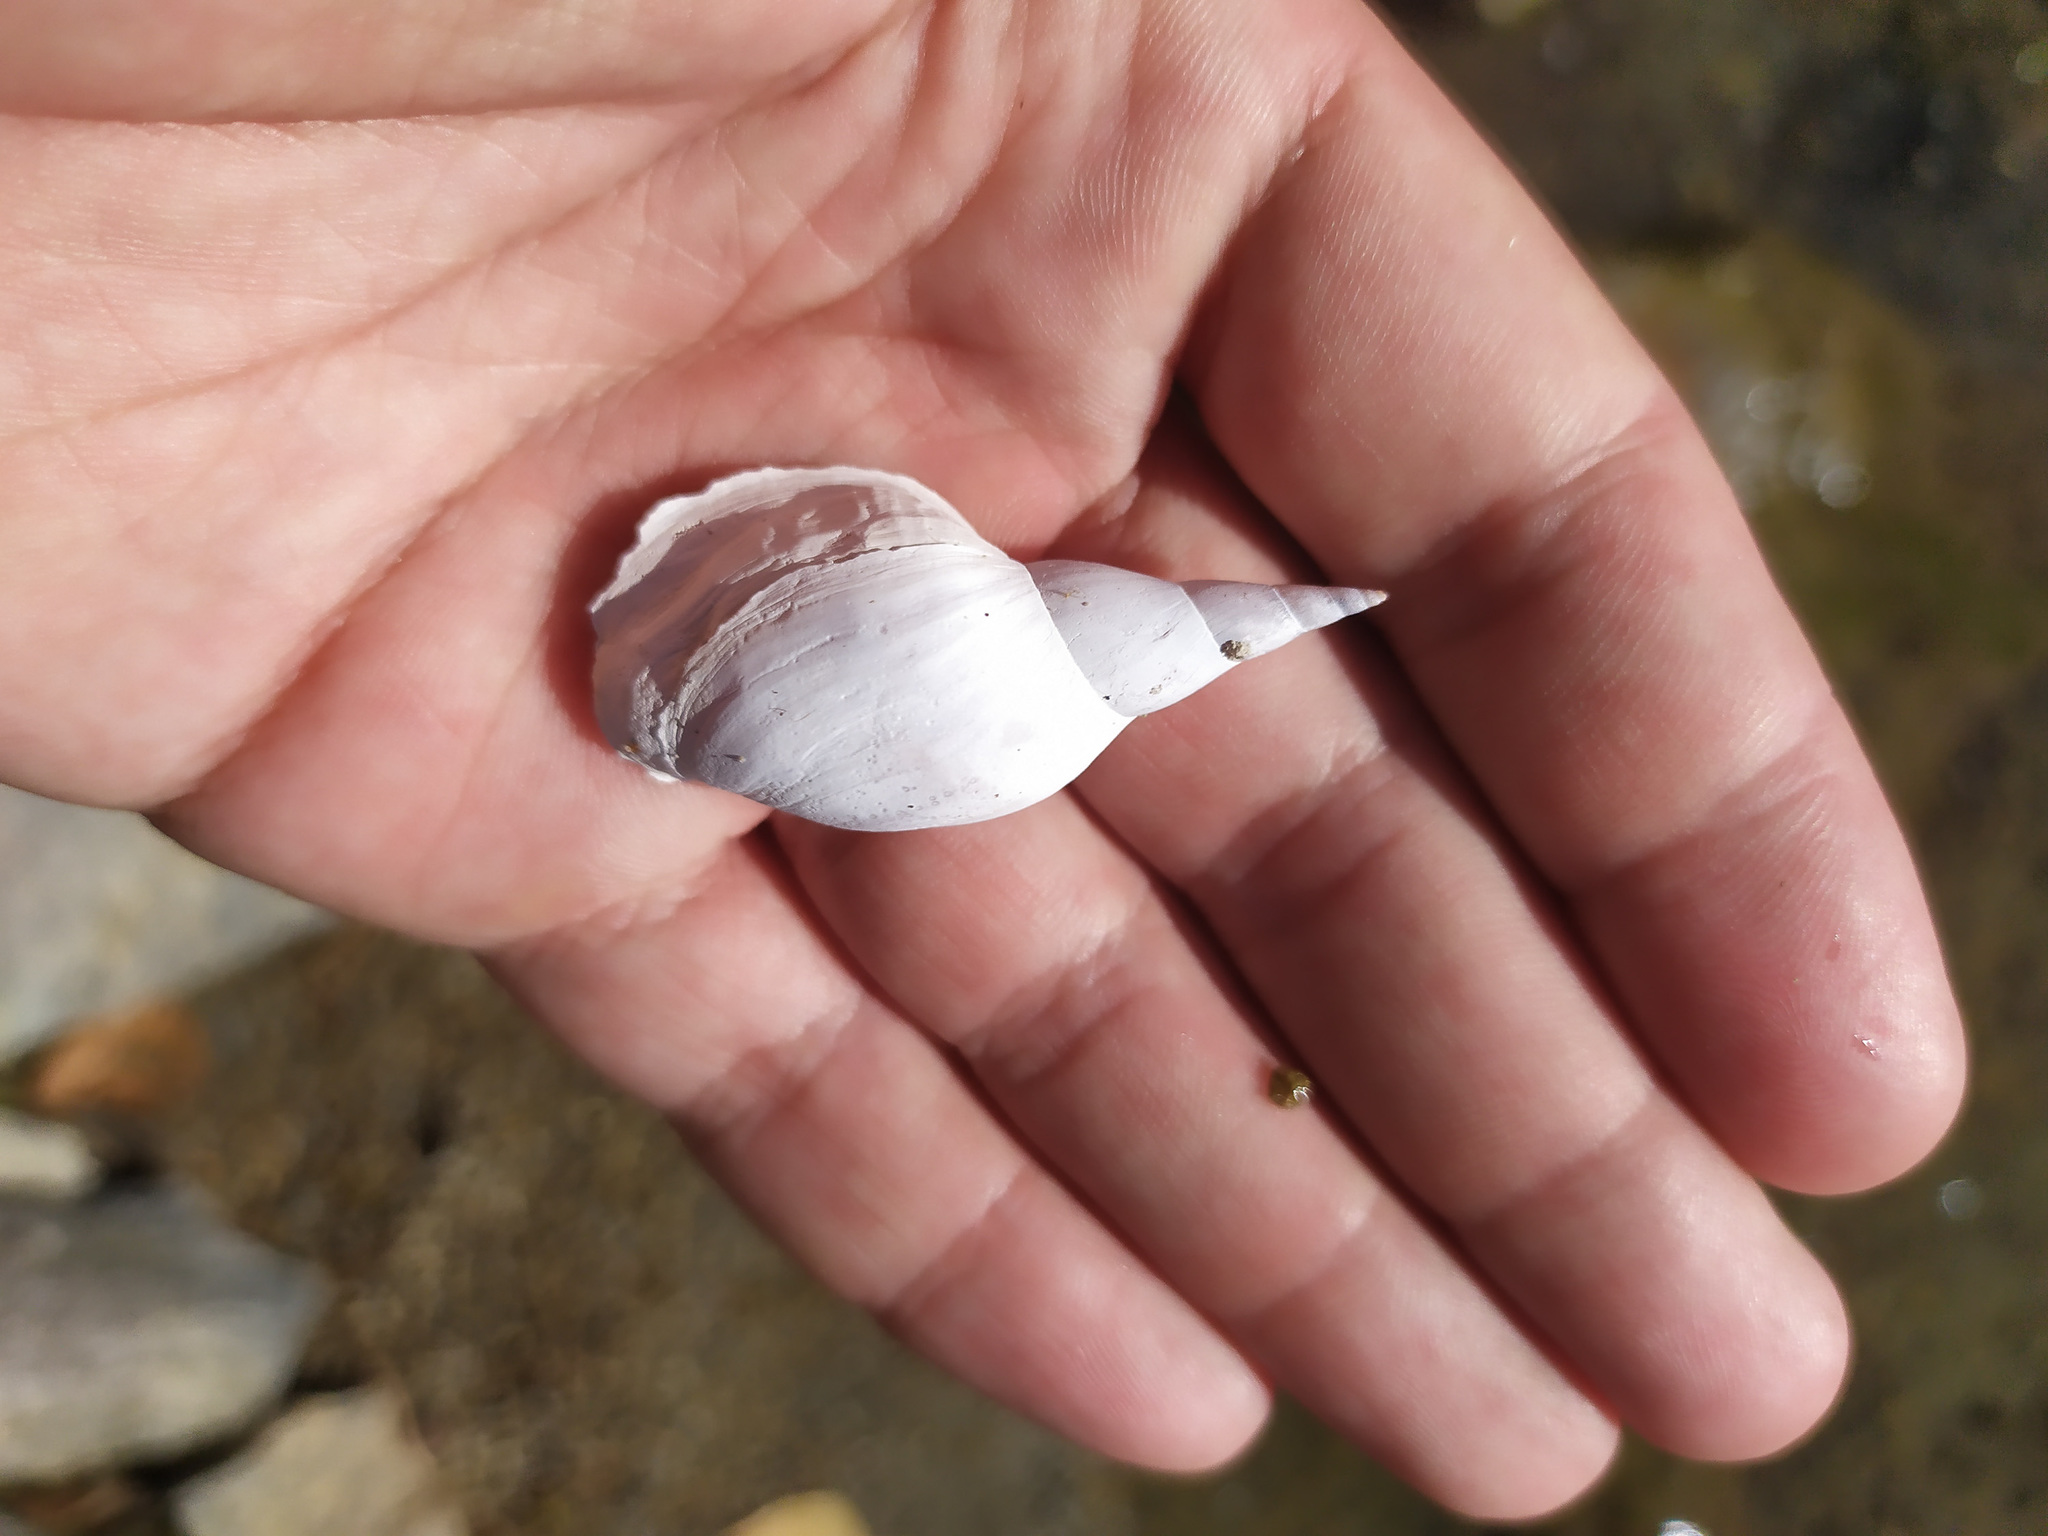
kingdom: Animalia
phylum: Mollusca
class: Gastropoda
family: Lymnaeidae
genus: Lymnaea
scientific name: Lymnaea stagnalis
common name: Great pond snail
